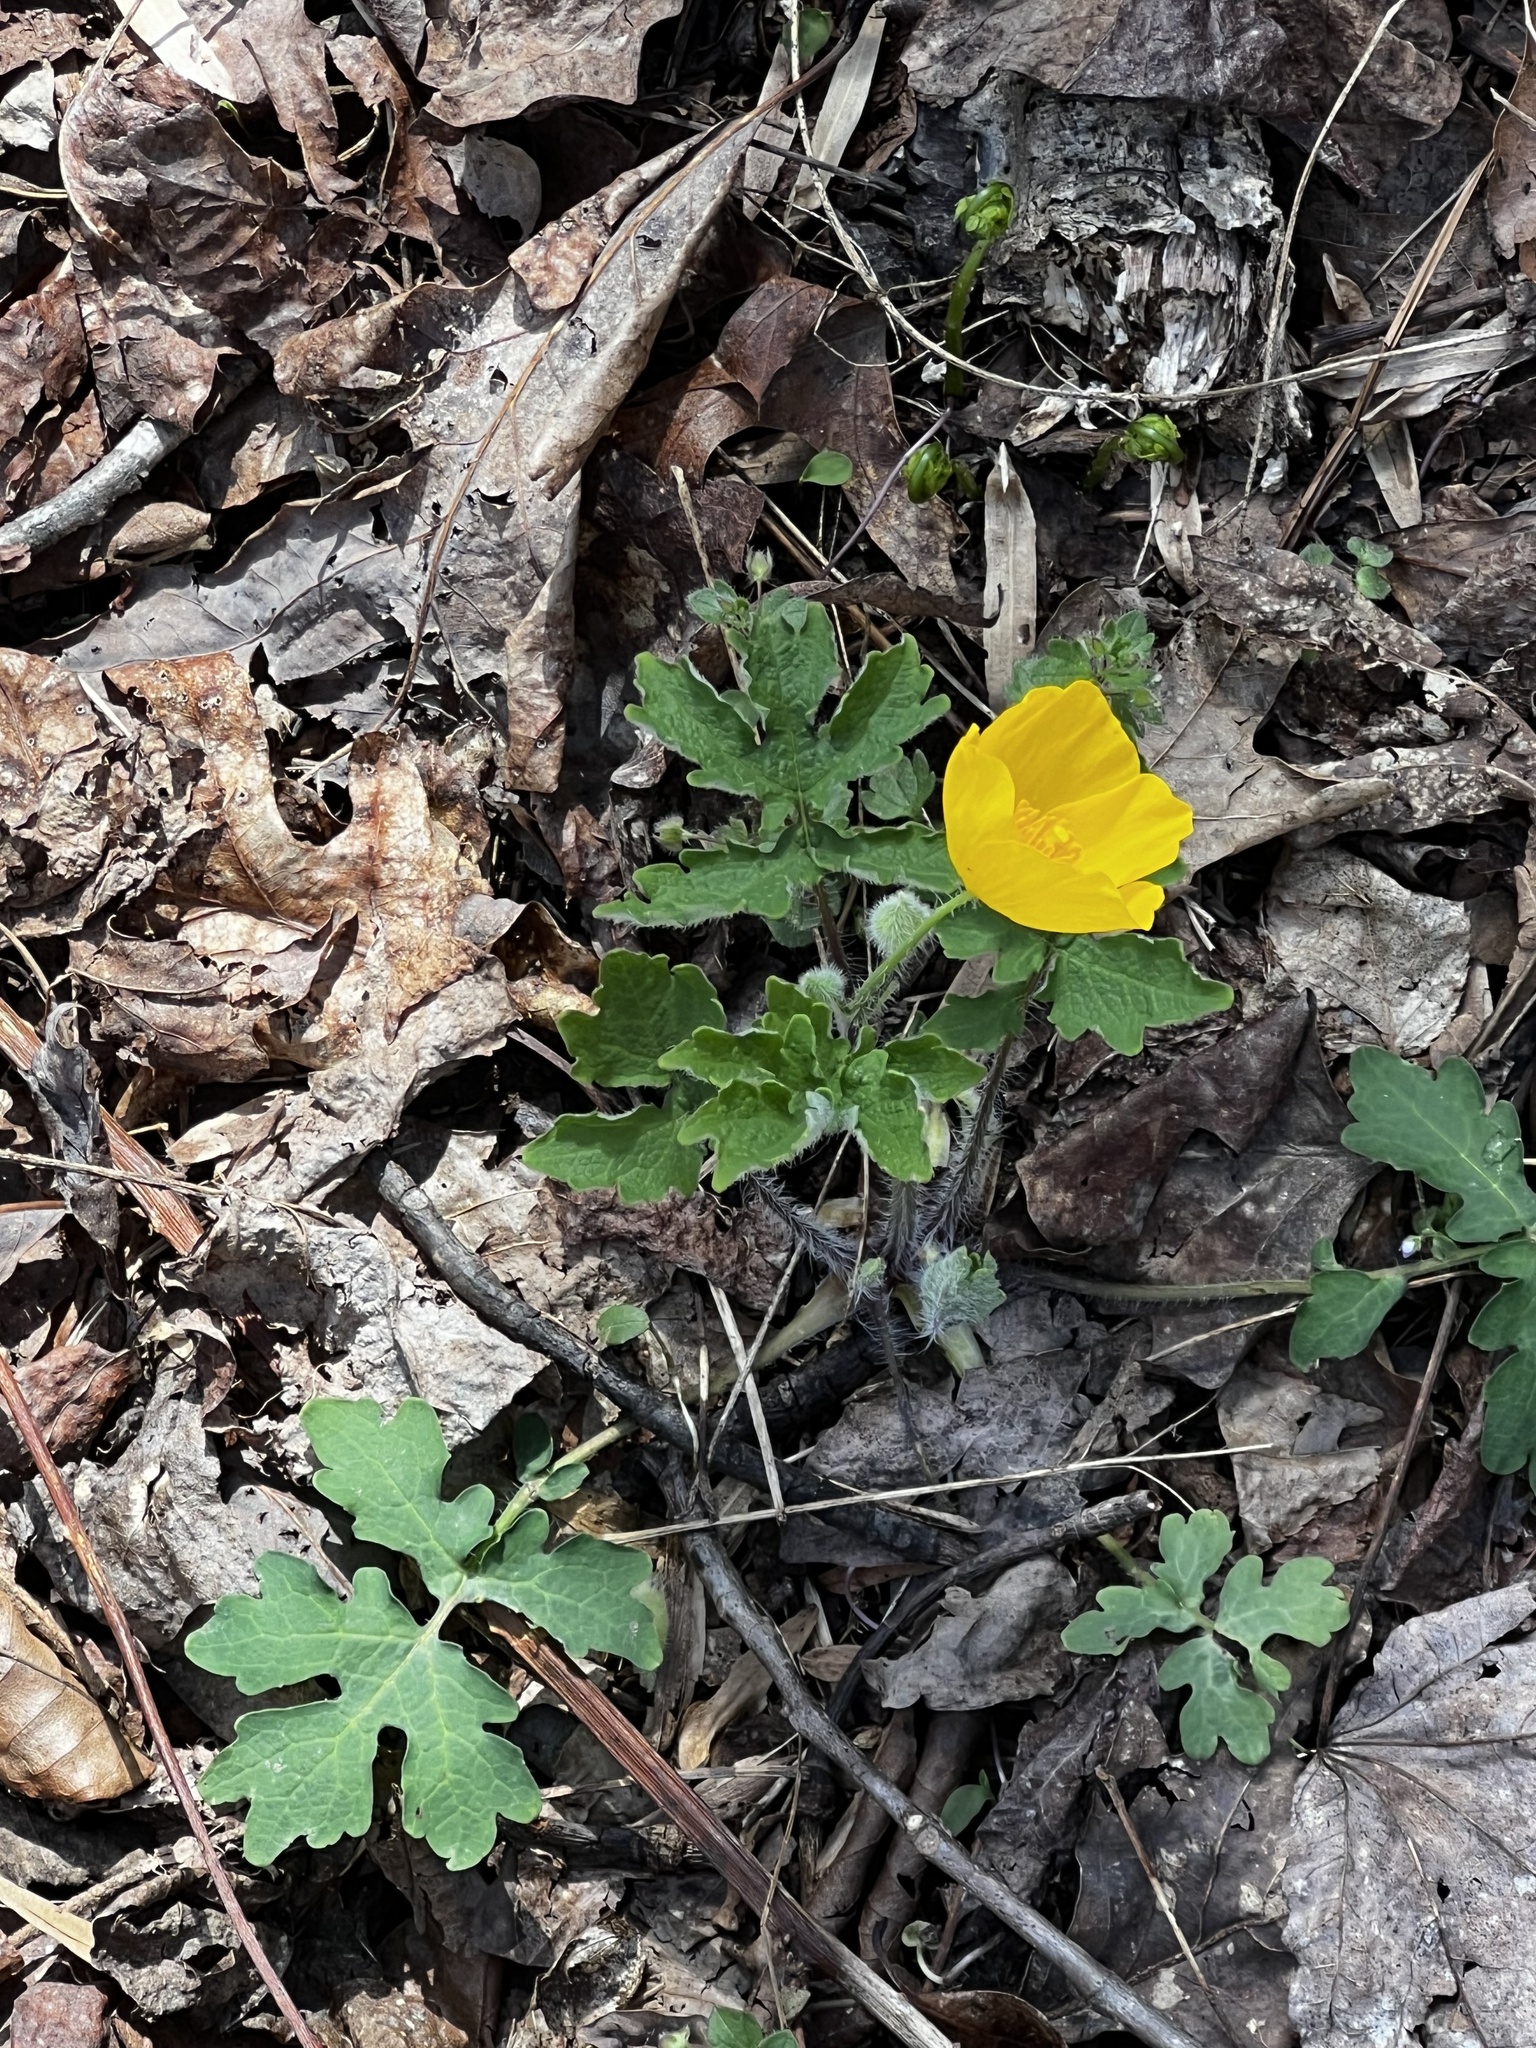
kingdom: Plantae
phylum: Tracheophyta
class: Magnoliopsida
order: Ranunculales
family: Papaveraceae
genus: Stylophorum
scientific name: Stylophorum diphyllum
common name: Celandine poppy
